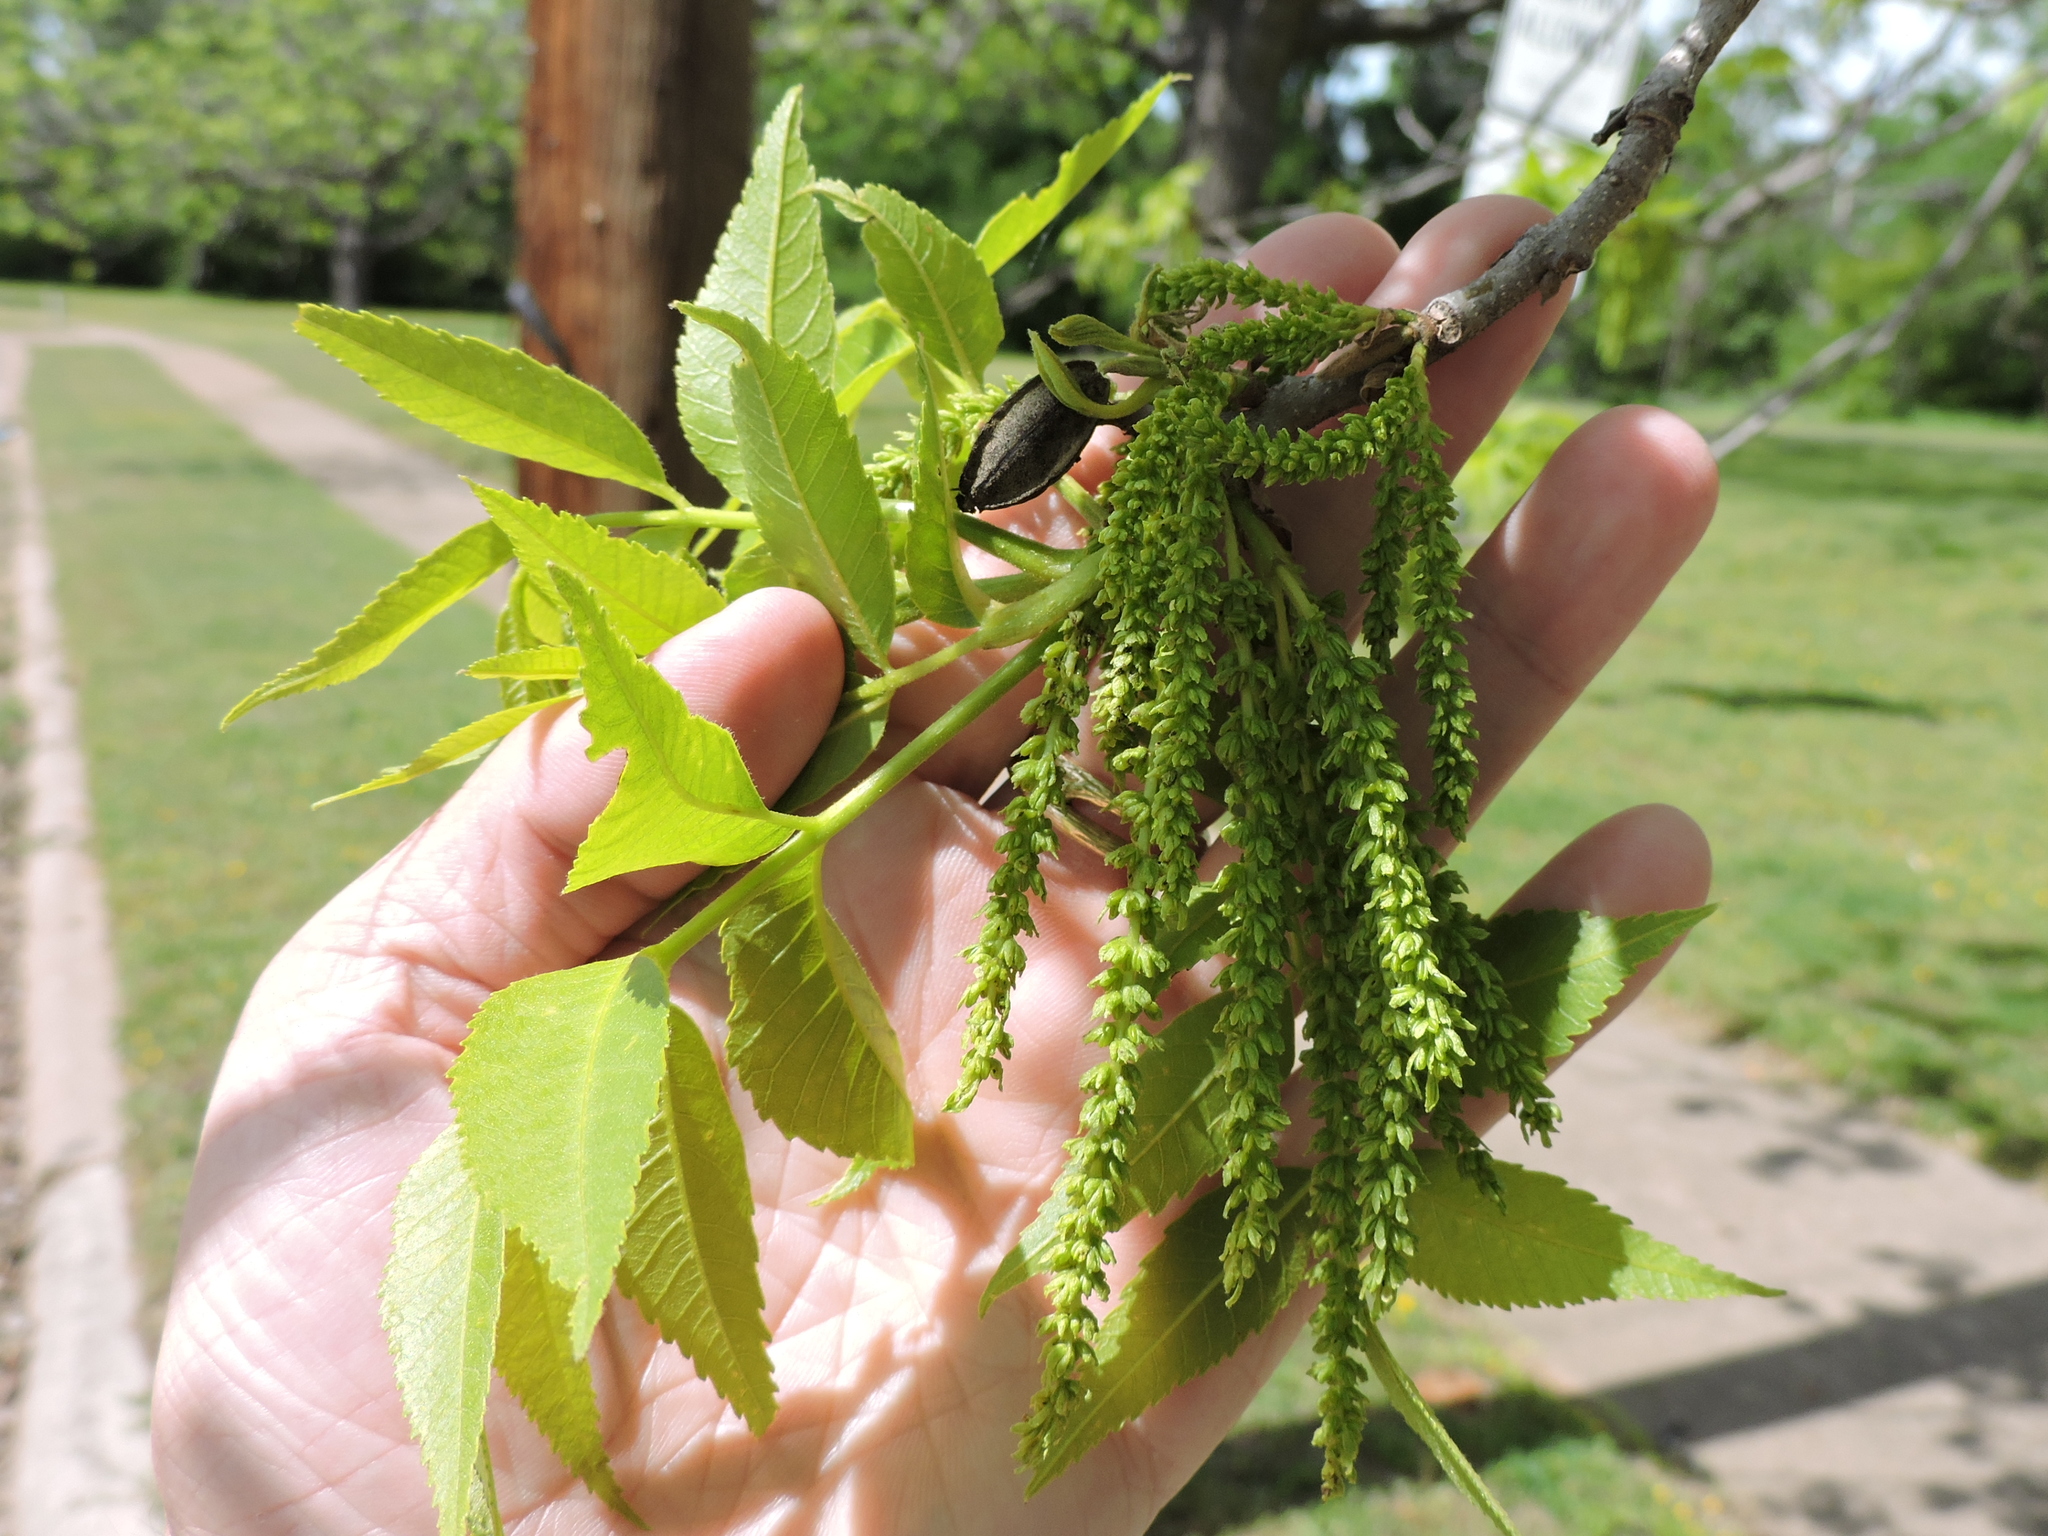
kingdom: Plantae
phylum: Tracheophyta
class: Magnoliopsida
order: Fagales
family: Juglandaceae
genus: Carya
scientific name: Carya illinoinensis
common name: Pecan
